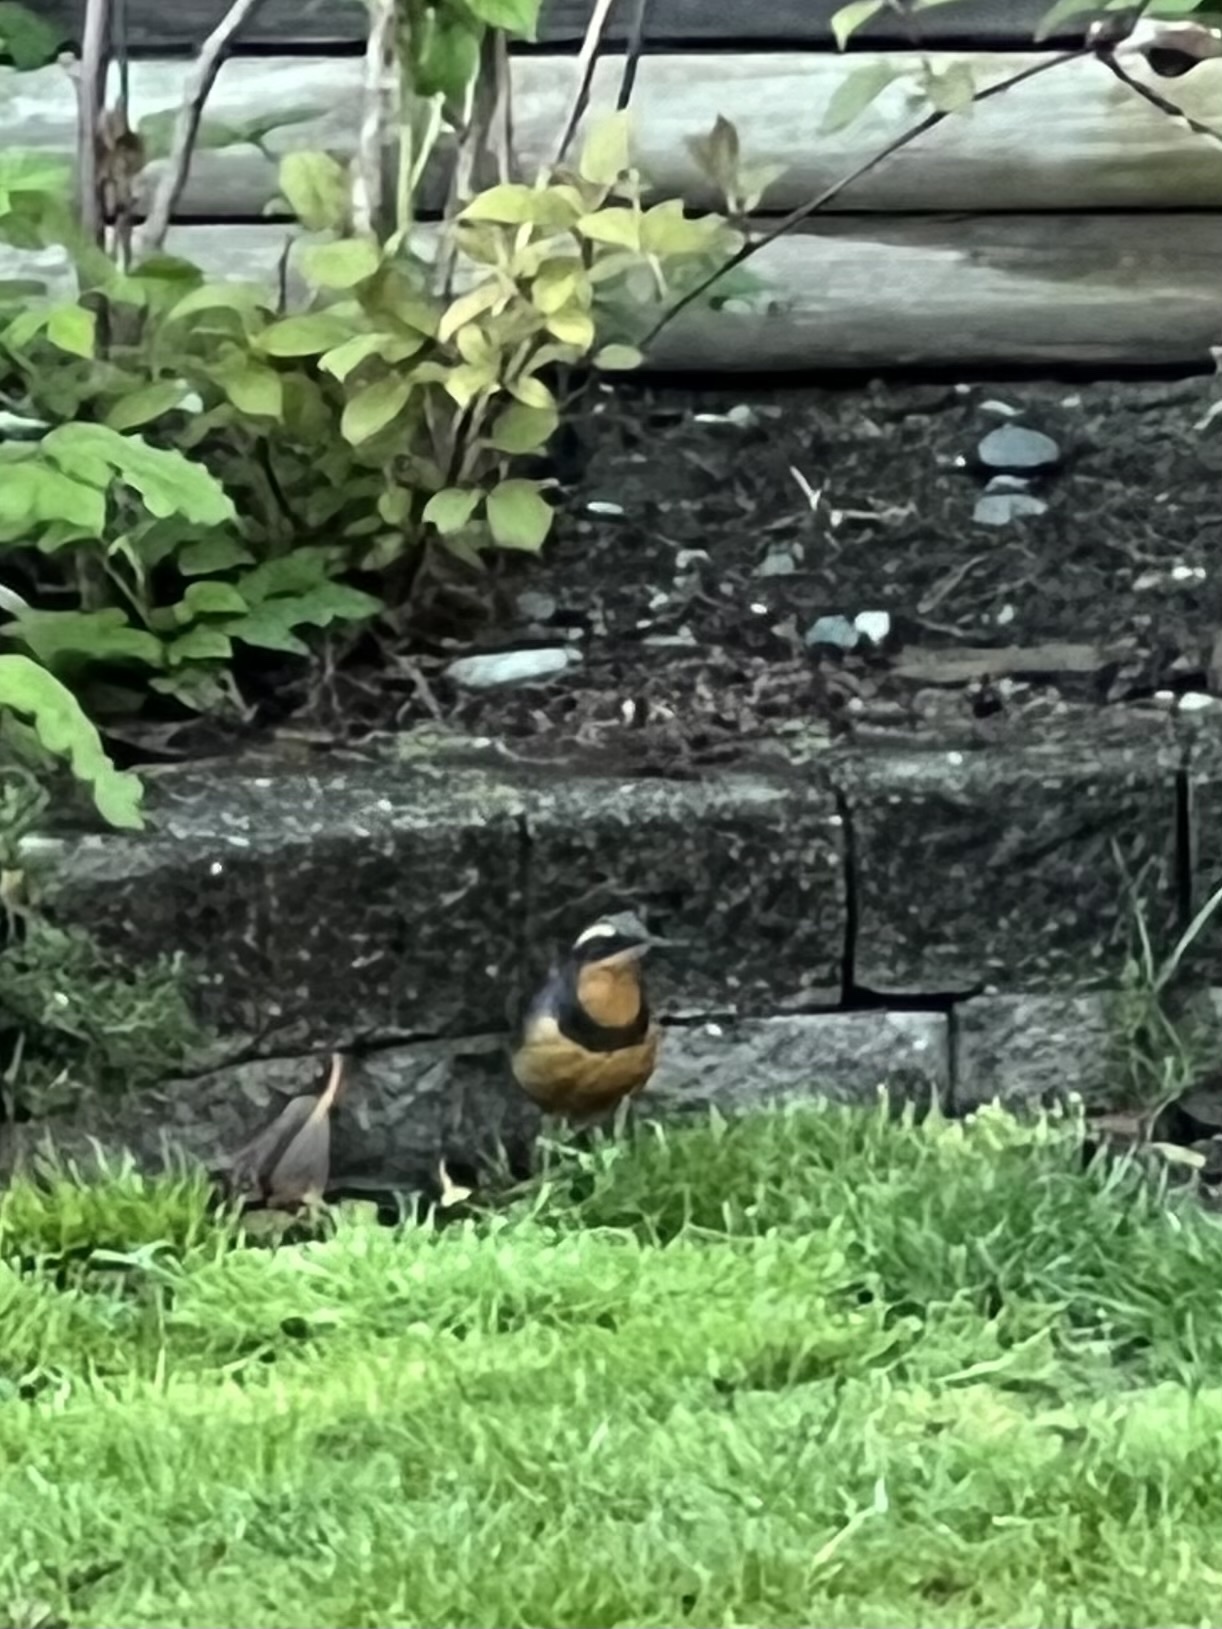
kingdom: Animalia
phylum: Chordata
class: Aves
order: Passeriformes
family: Turdidae
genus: Ixoreus
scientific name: Ixoreus naevius
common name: Varied thrush
